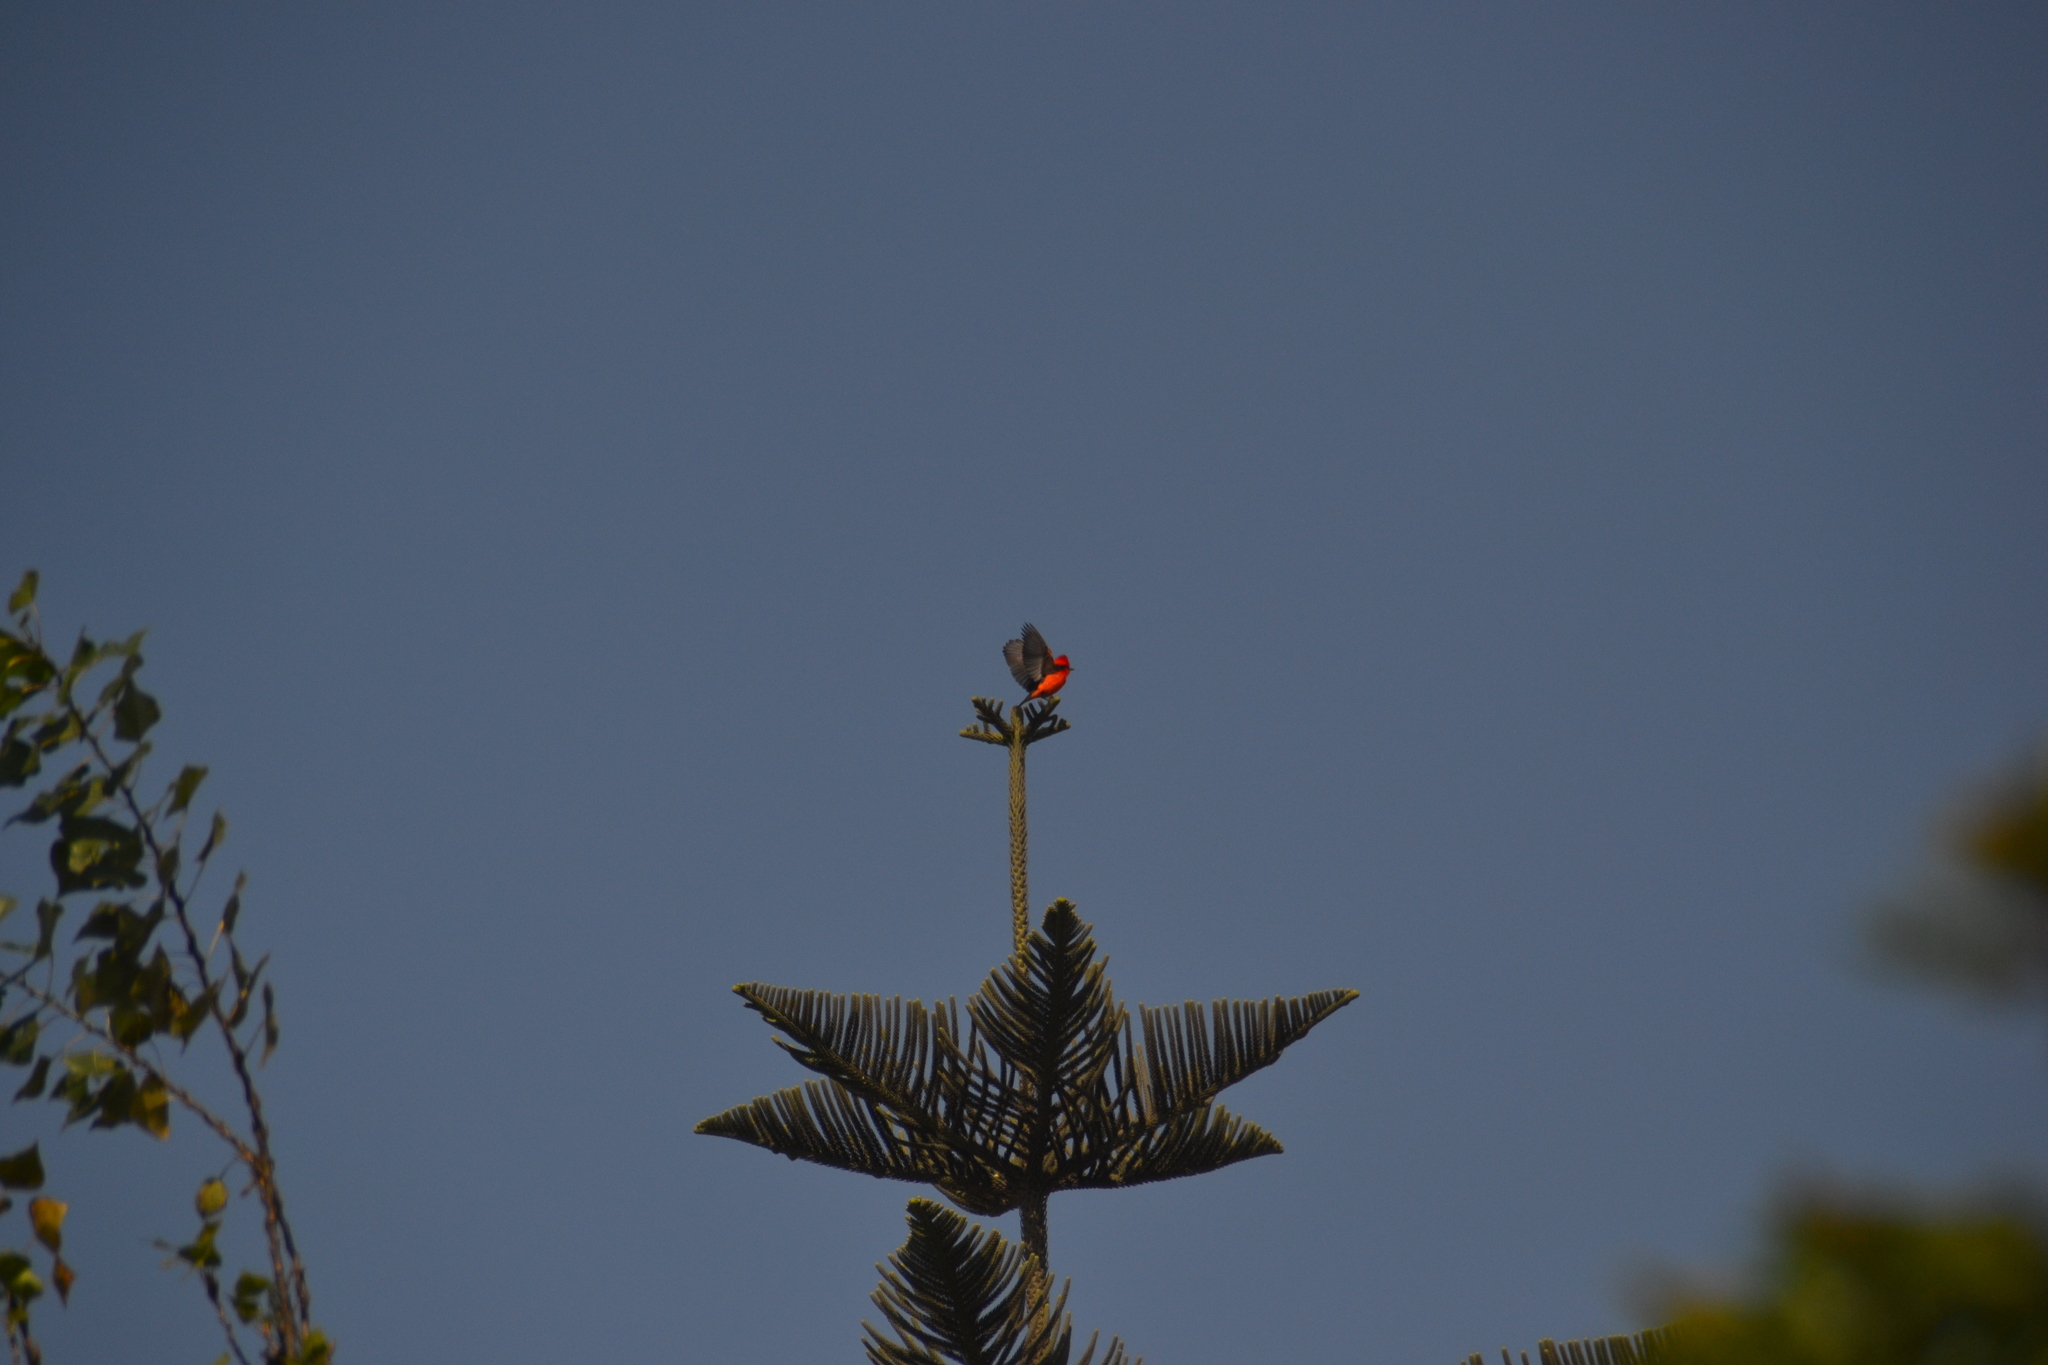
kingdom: Animalia
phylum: Chordata
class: Aves
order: Passeriformes
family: Tyrannidae
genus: Pyrocephalus
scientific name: Pyrocephalus rubinus
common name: Vermilion flycatcher
